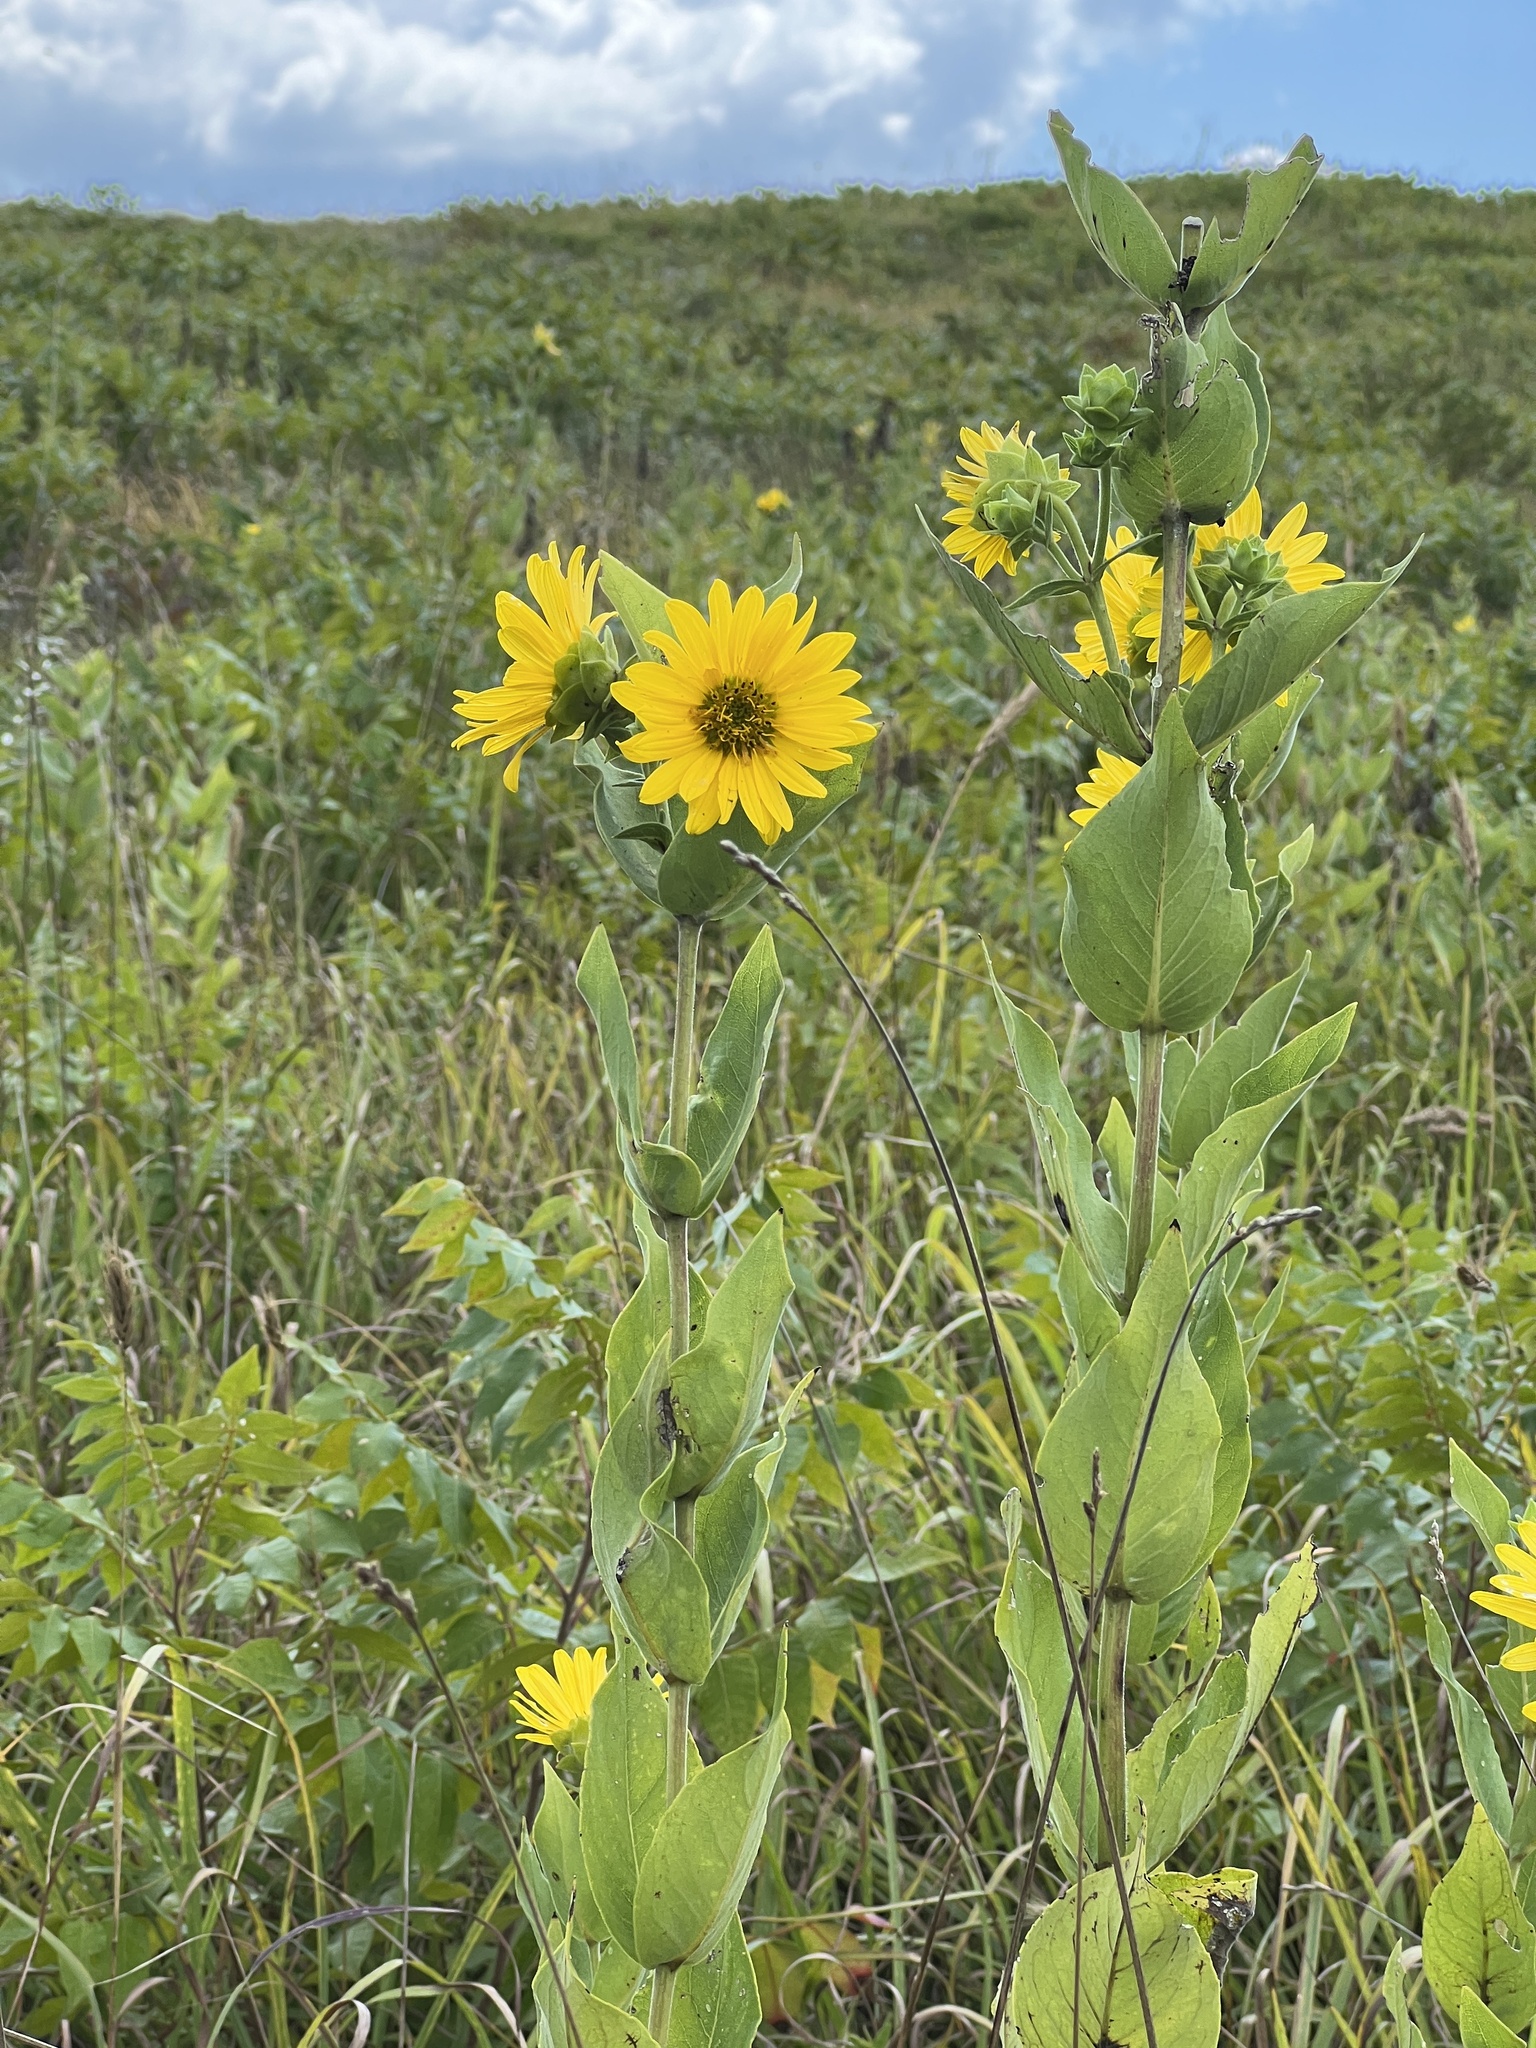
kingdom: Plantae
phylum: Tracheophyta
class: Magnoliopsida
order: Asterales
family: Asteraceae
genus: Silphium
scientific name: Silphium integrifolium
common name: Whole-leaf rosinweed
